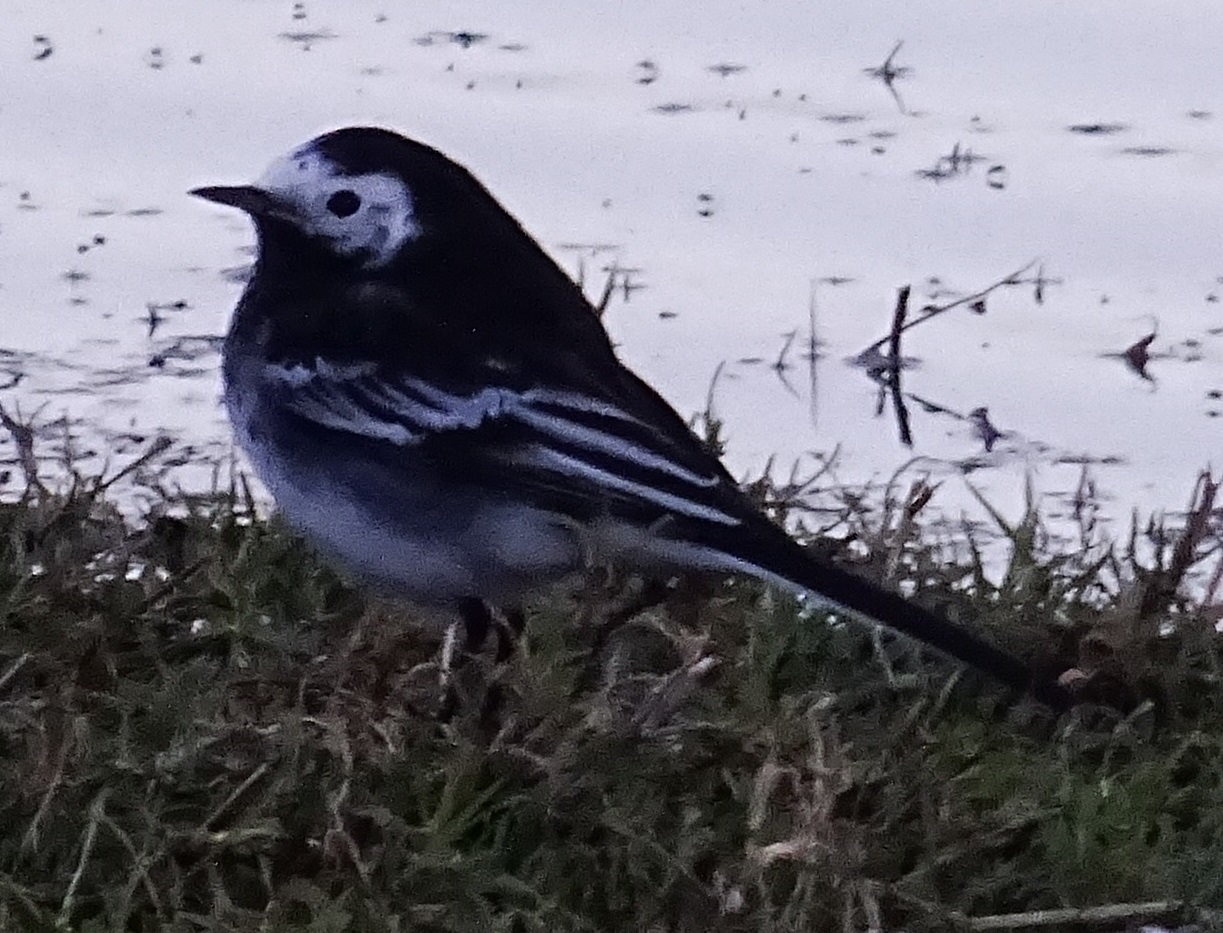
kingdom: Animalia
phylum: Chordata
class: Aves
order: Passeriformes
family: Motacillidae
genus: Motacilla
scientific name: Motacilla alba
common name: White wagtail
